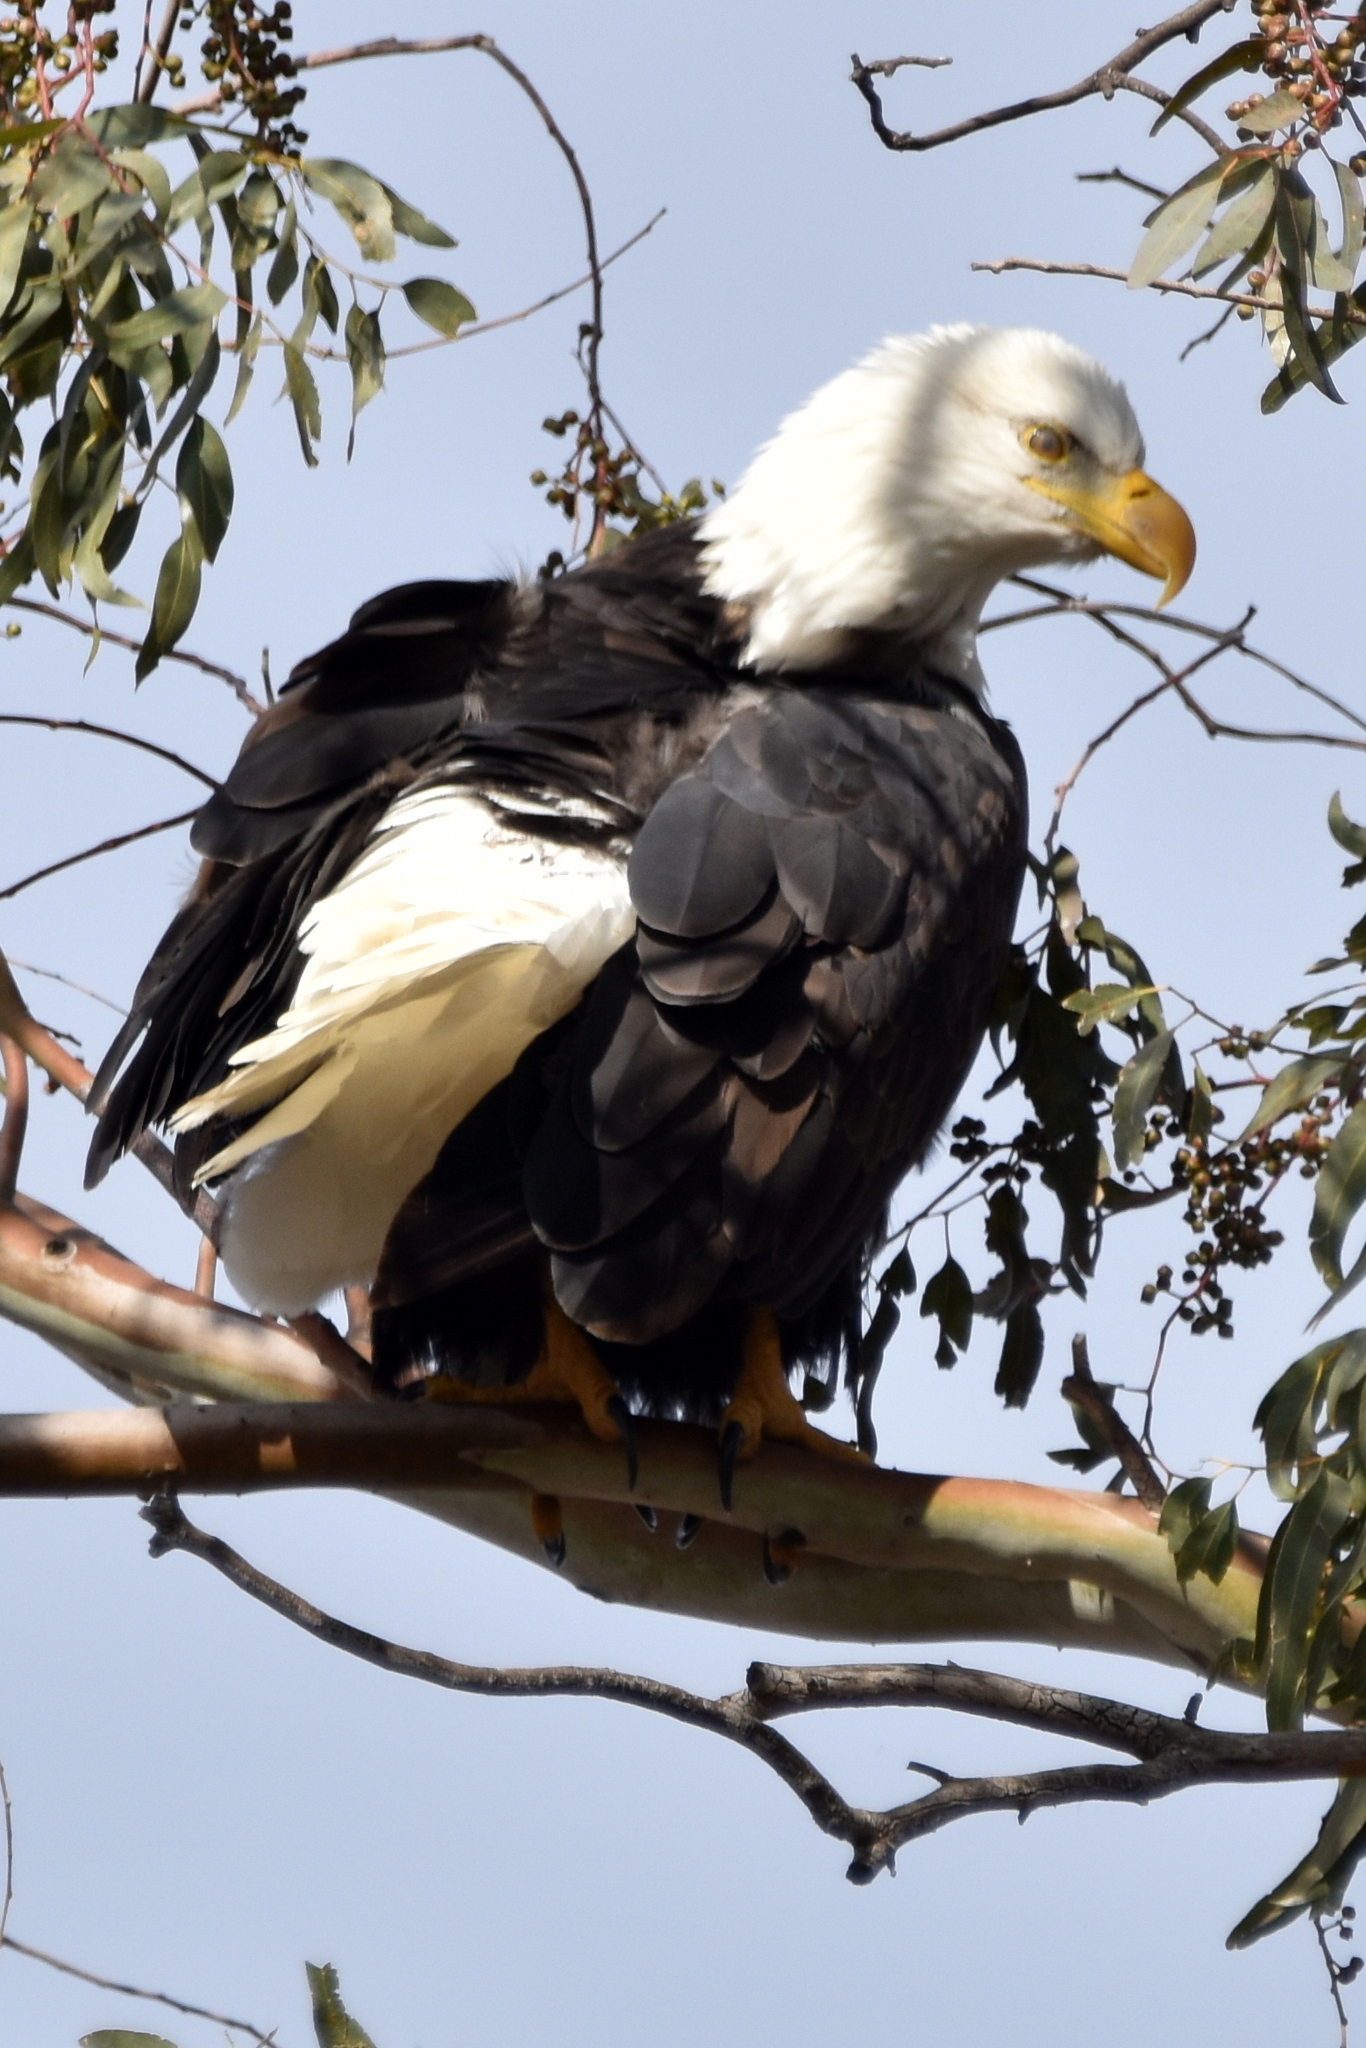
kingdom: Animalia
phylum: Chordata
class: Aves
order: Accipitriformes
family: Accipitridae
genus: Haliaeetus
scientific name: Haliaeetus leucocephalus
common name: Bald eagle
